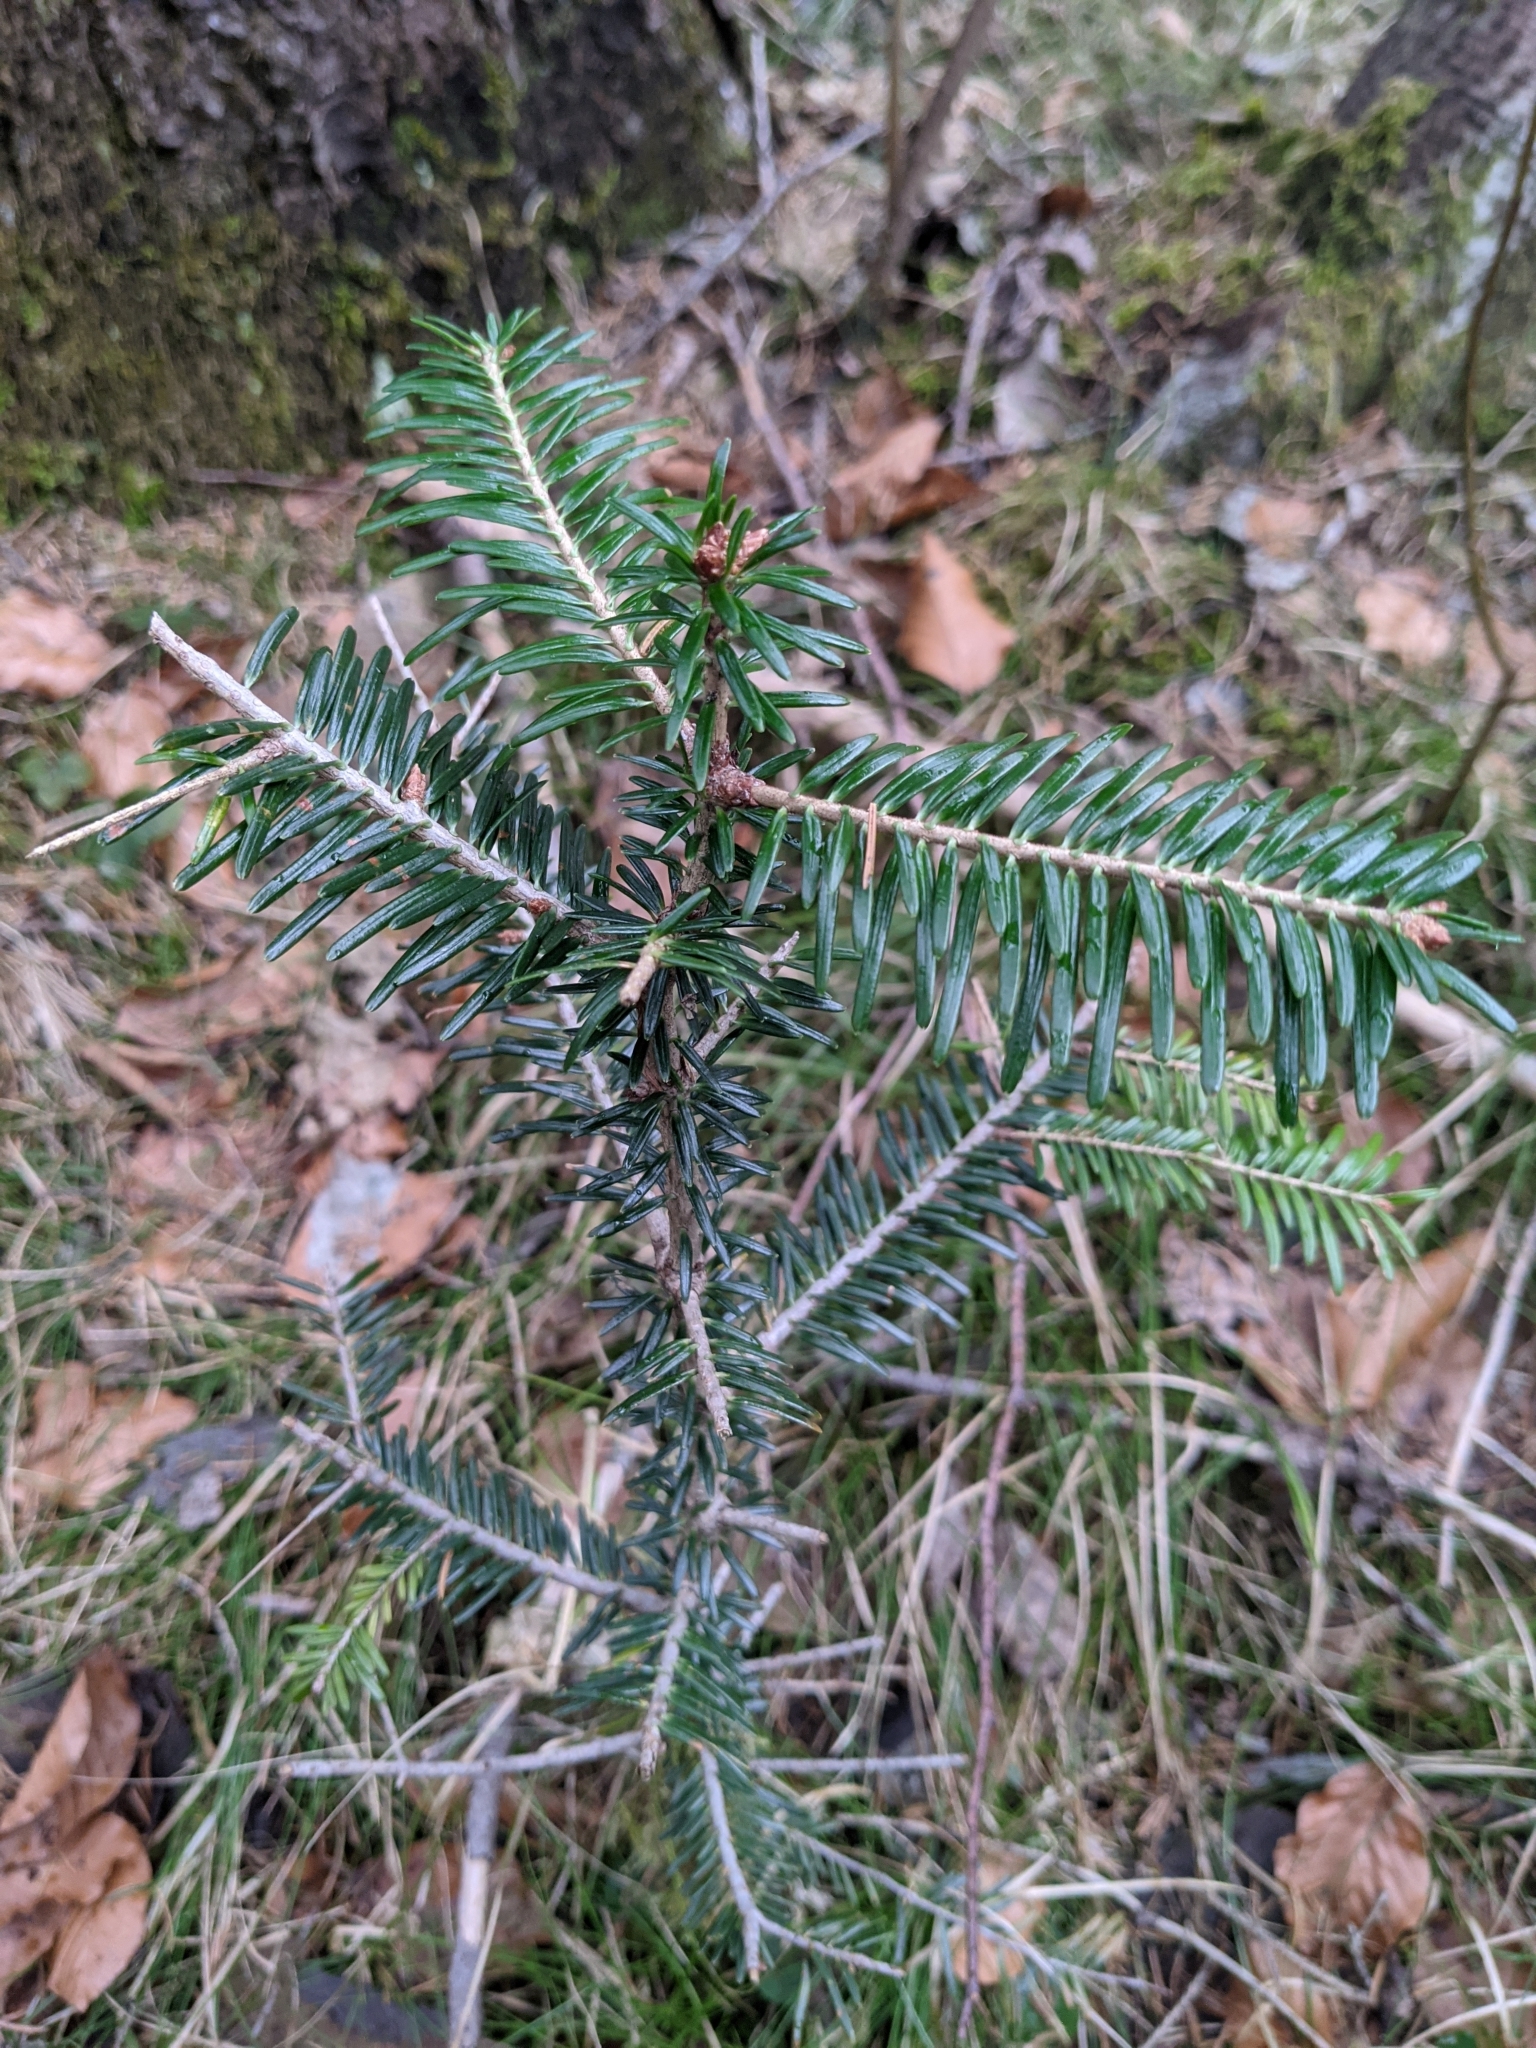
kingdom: Plantae
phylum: Tracheophyta
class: Pinopsida
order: Pinales
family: Pinaceae
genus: Abies
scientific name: Abies alba
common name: Silver fir
